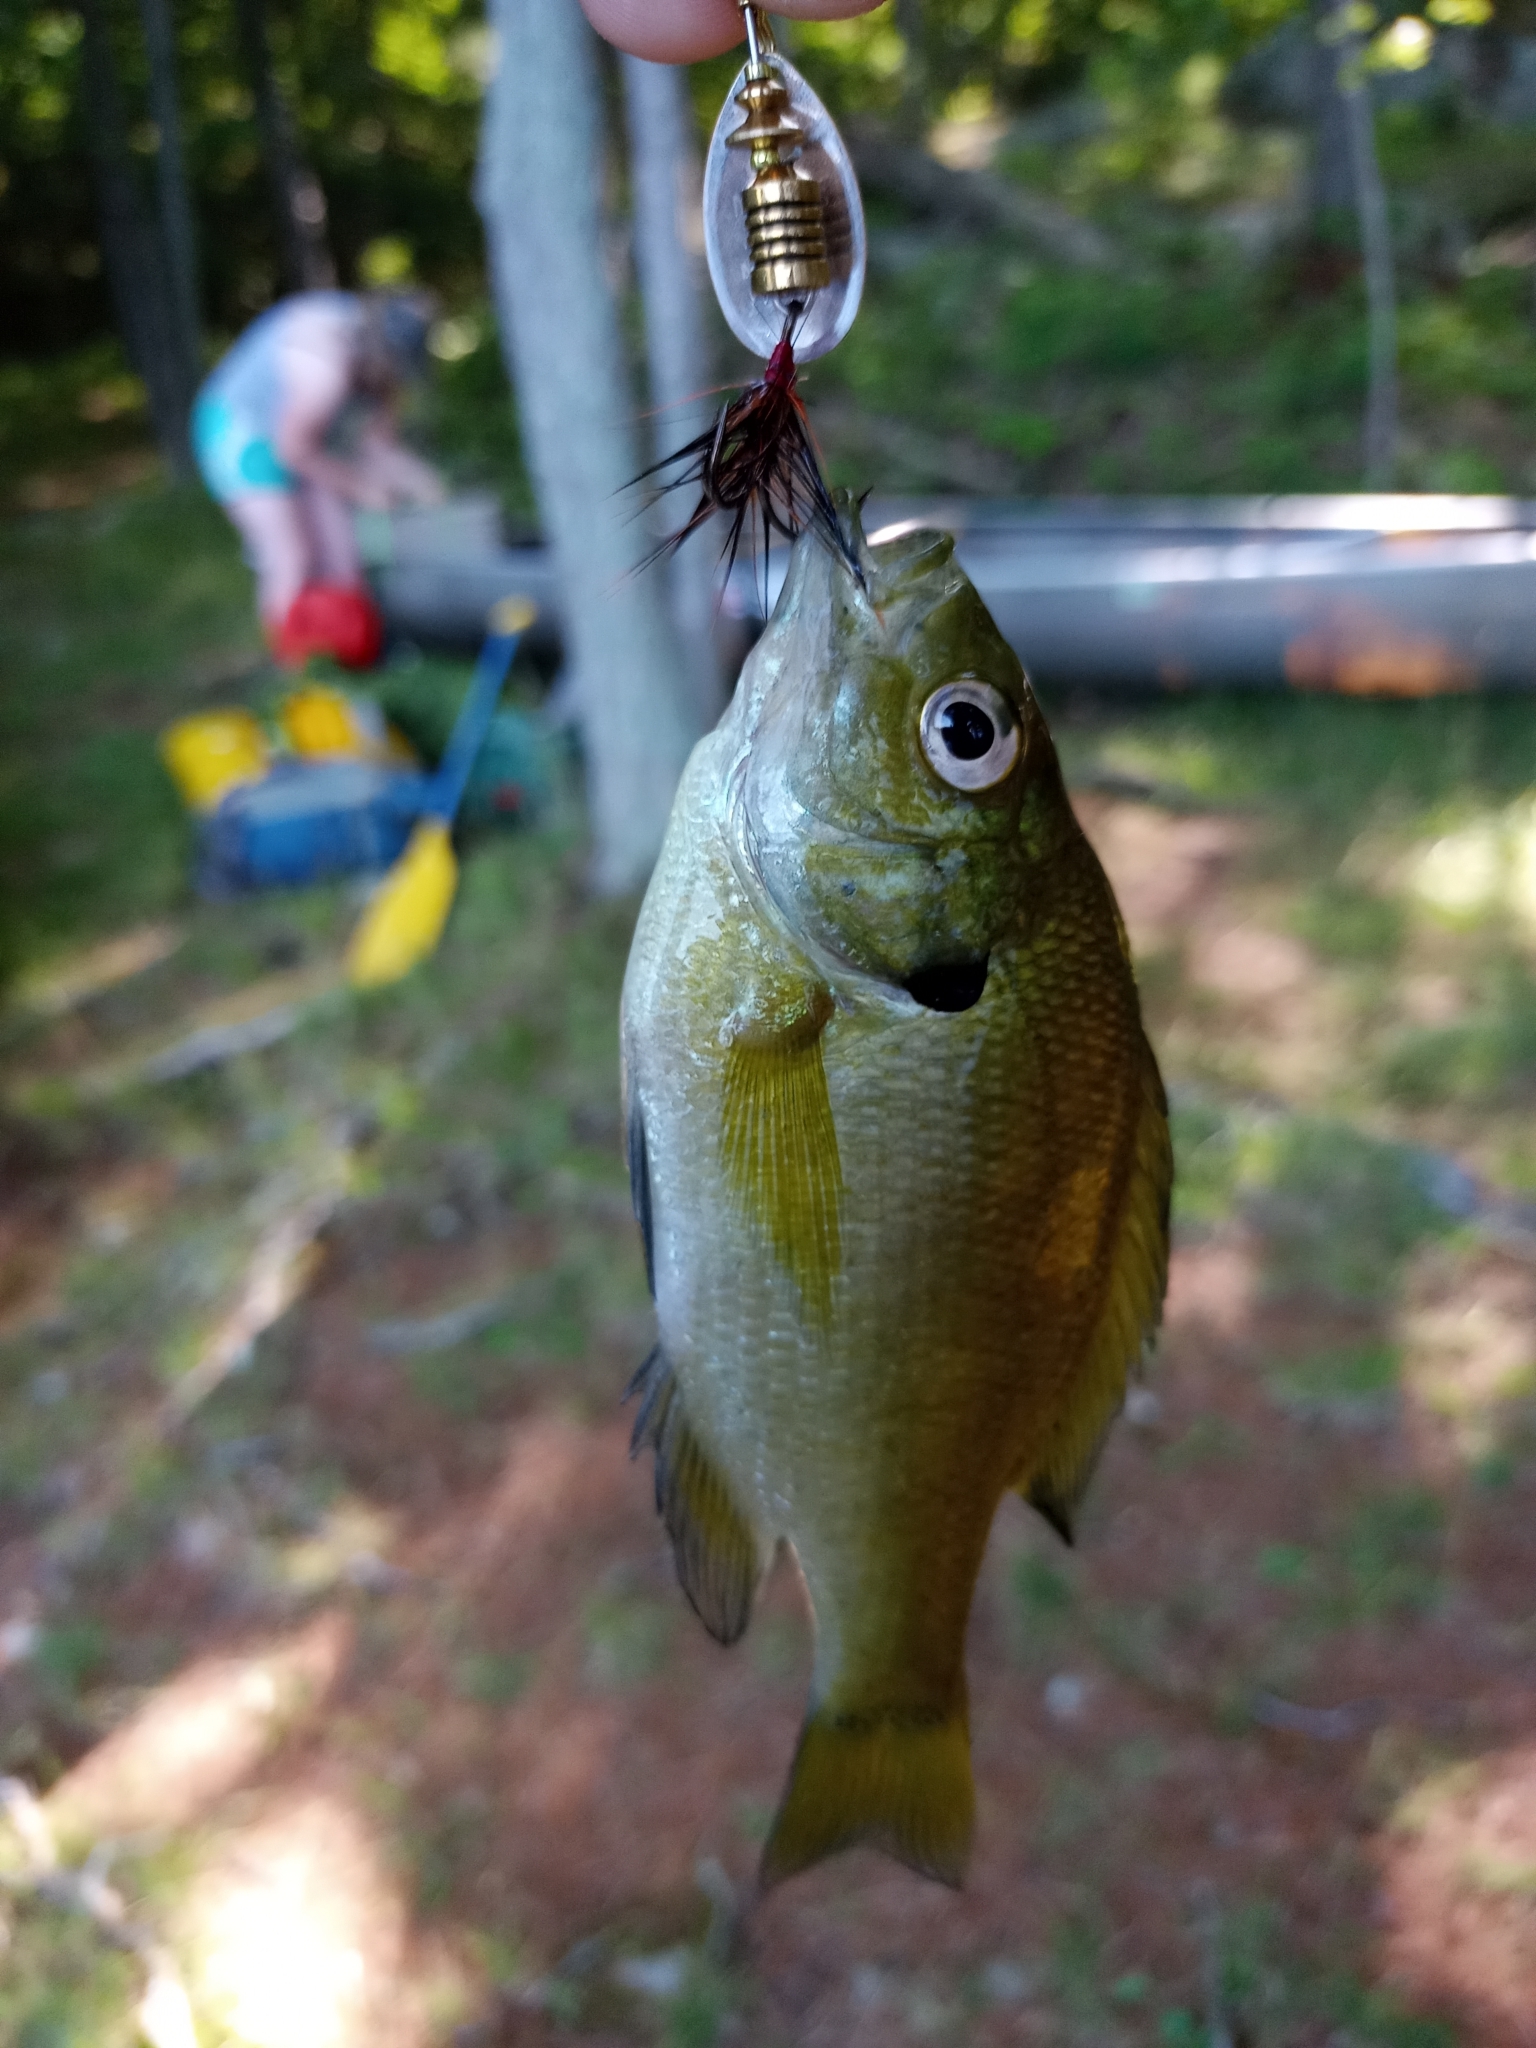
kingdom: Animalia
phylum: Chordata
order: Perciformes
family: Centrarchidae
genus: Lepomis
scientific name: Lepomis macrochirus
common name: Bluegill
